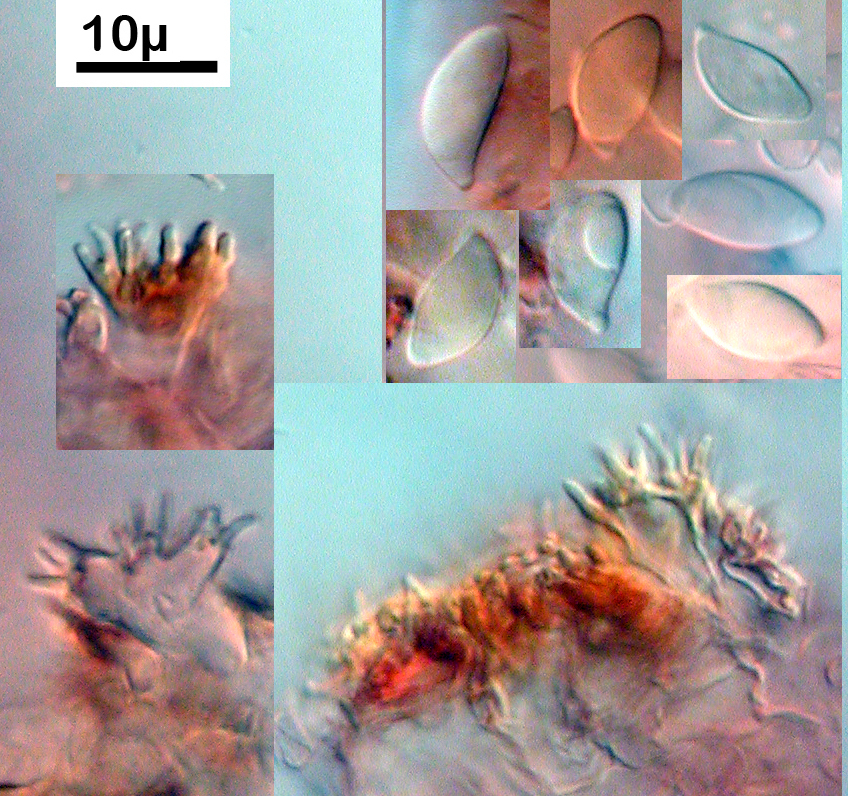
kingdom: Fungi
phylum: Basidiomycota
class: Agaricomycetes
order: Agaricales
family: Marasmiaceae
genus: Marasmius
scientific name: Marasmius elegans
